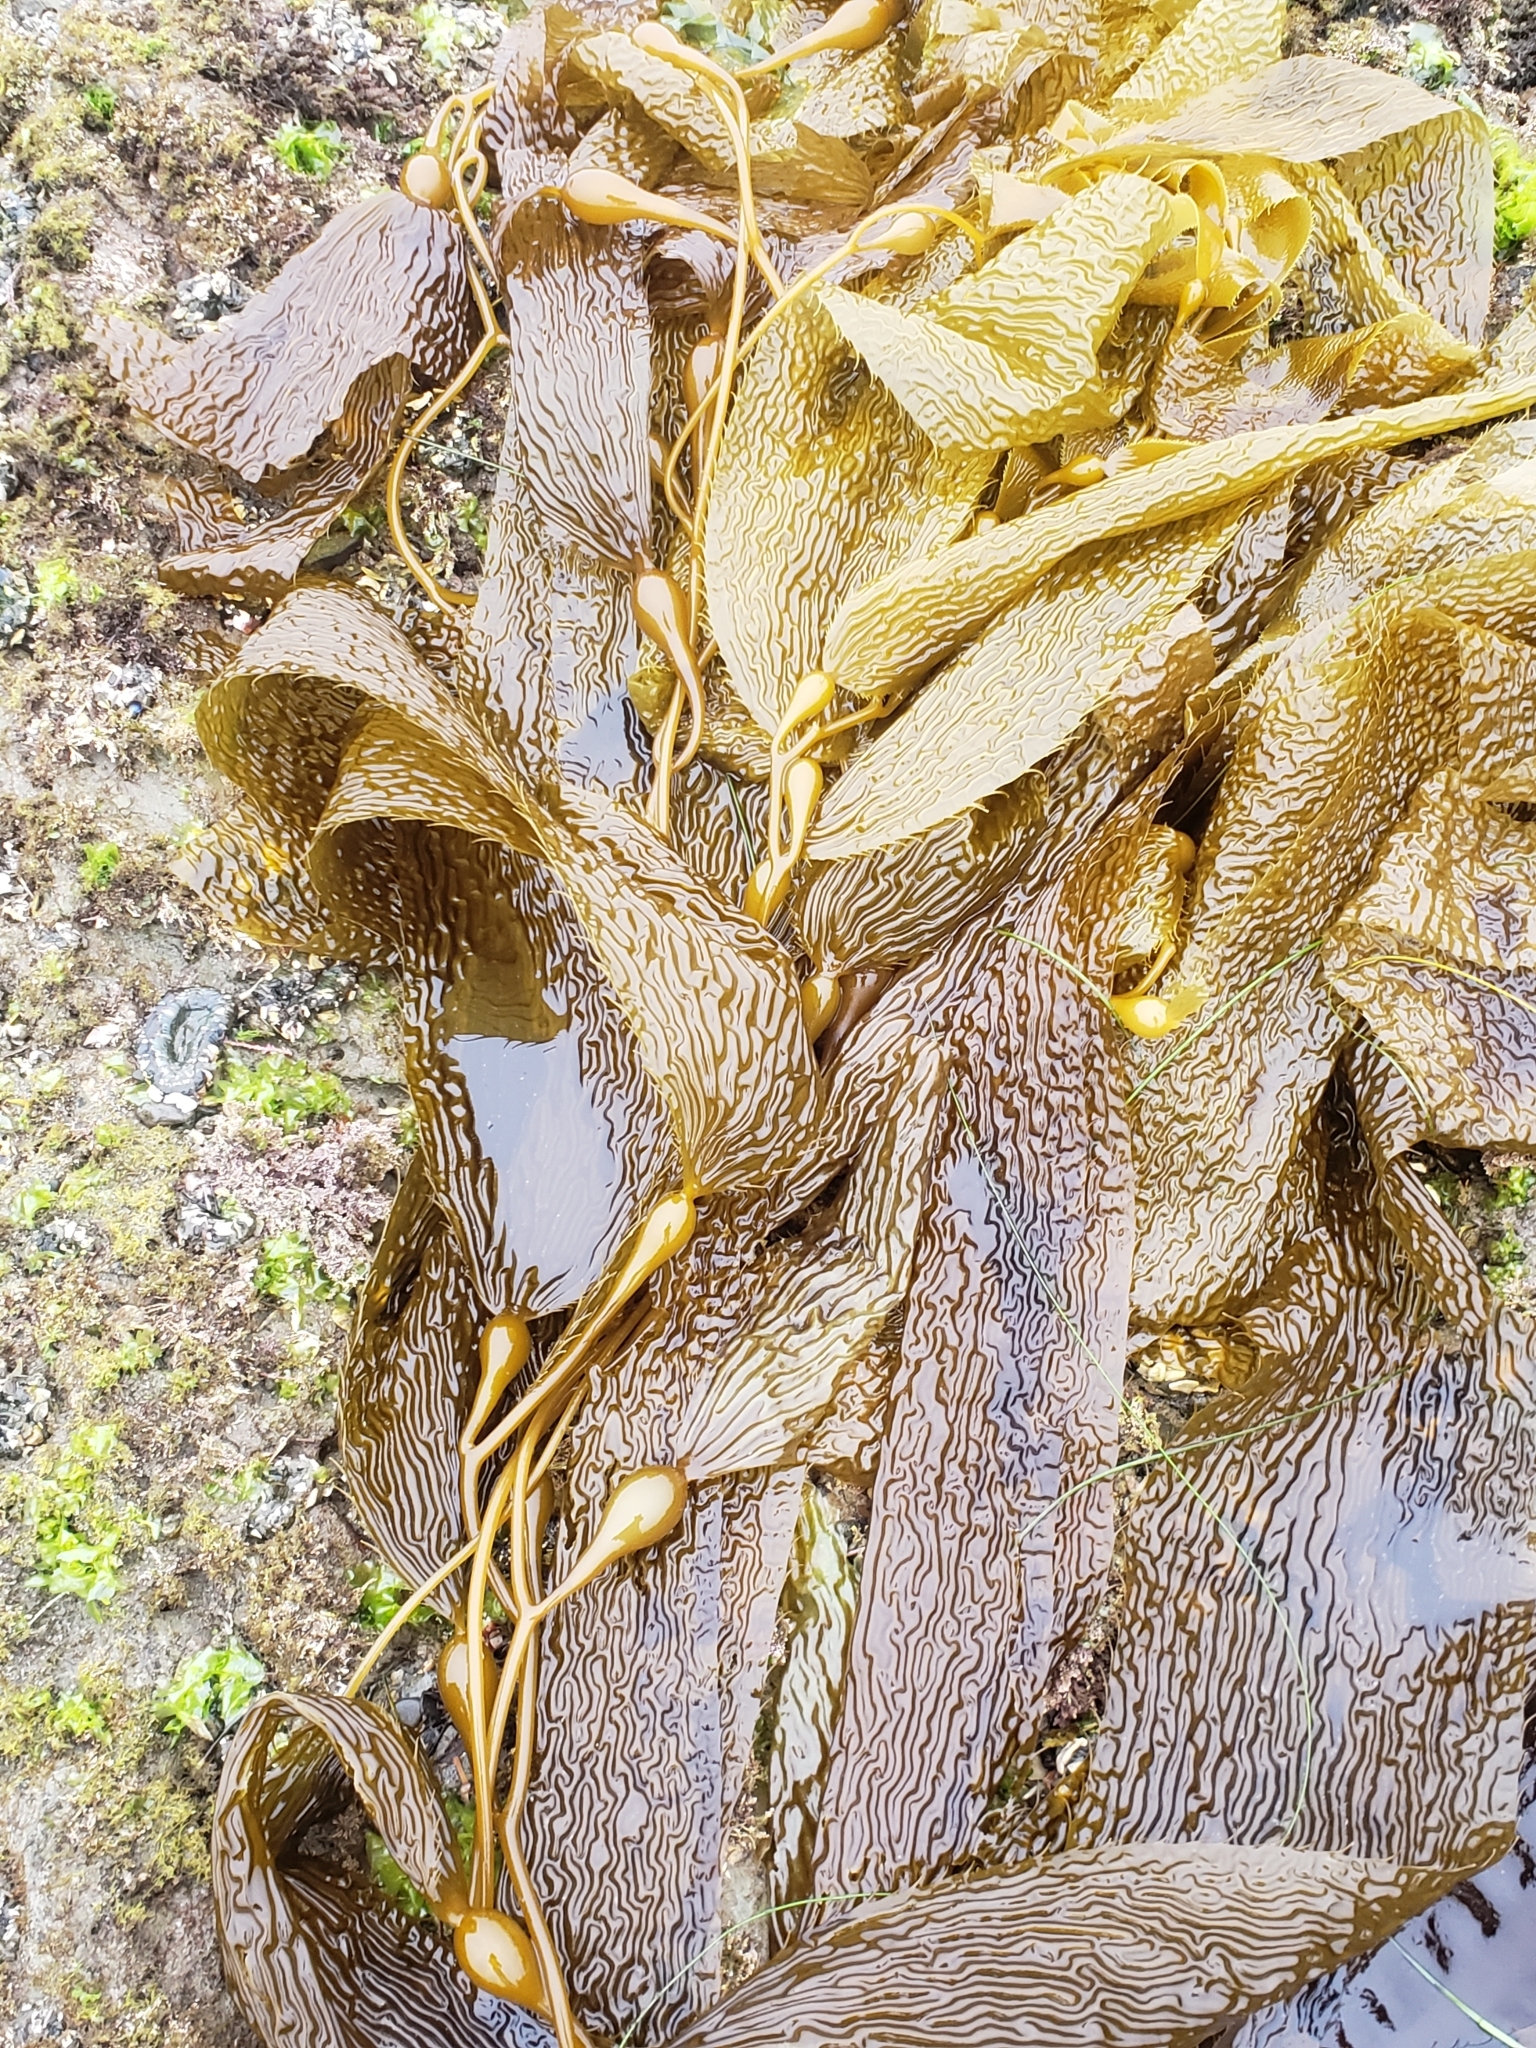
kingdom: Chromista
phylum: Ochrophyta
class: Phaeophyceae
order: Laminariales
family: Laminariaceae
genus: Macrocystis
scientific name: Macrocystis pyrifera
